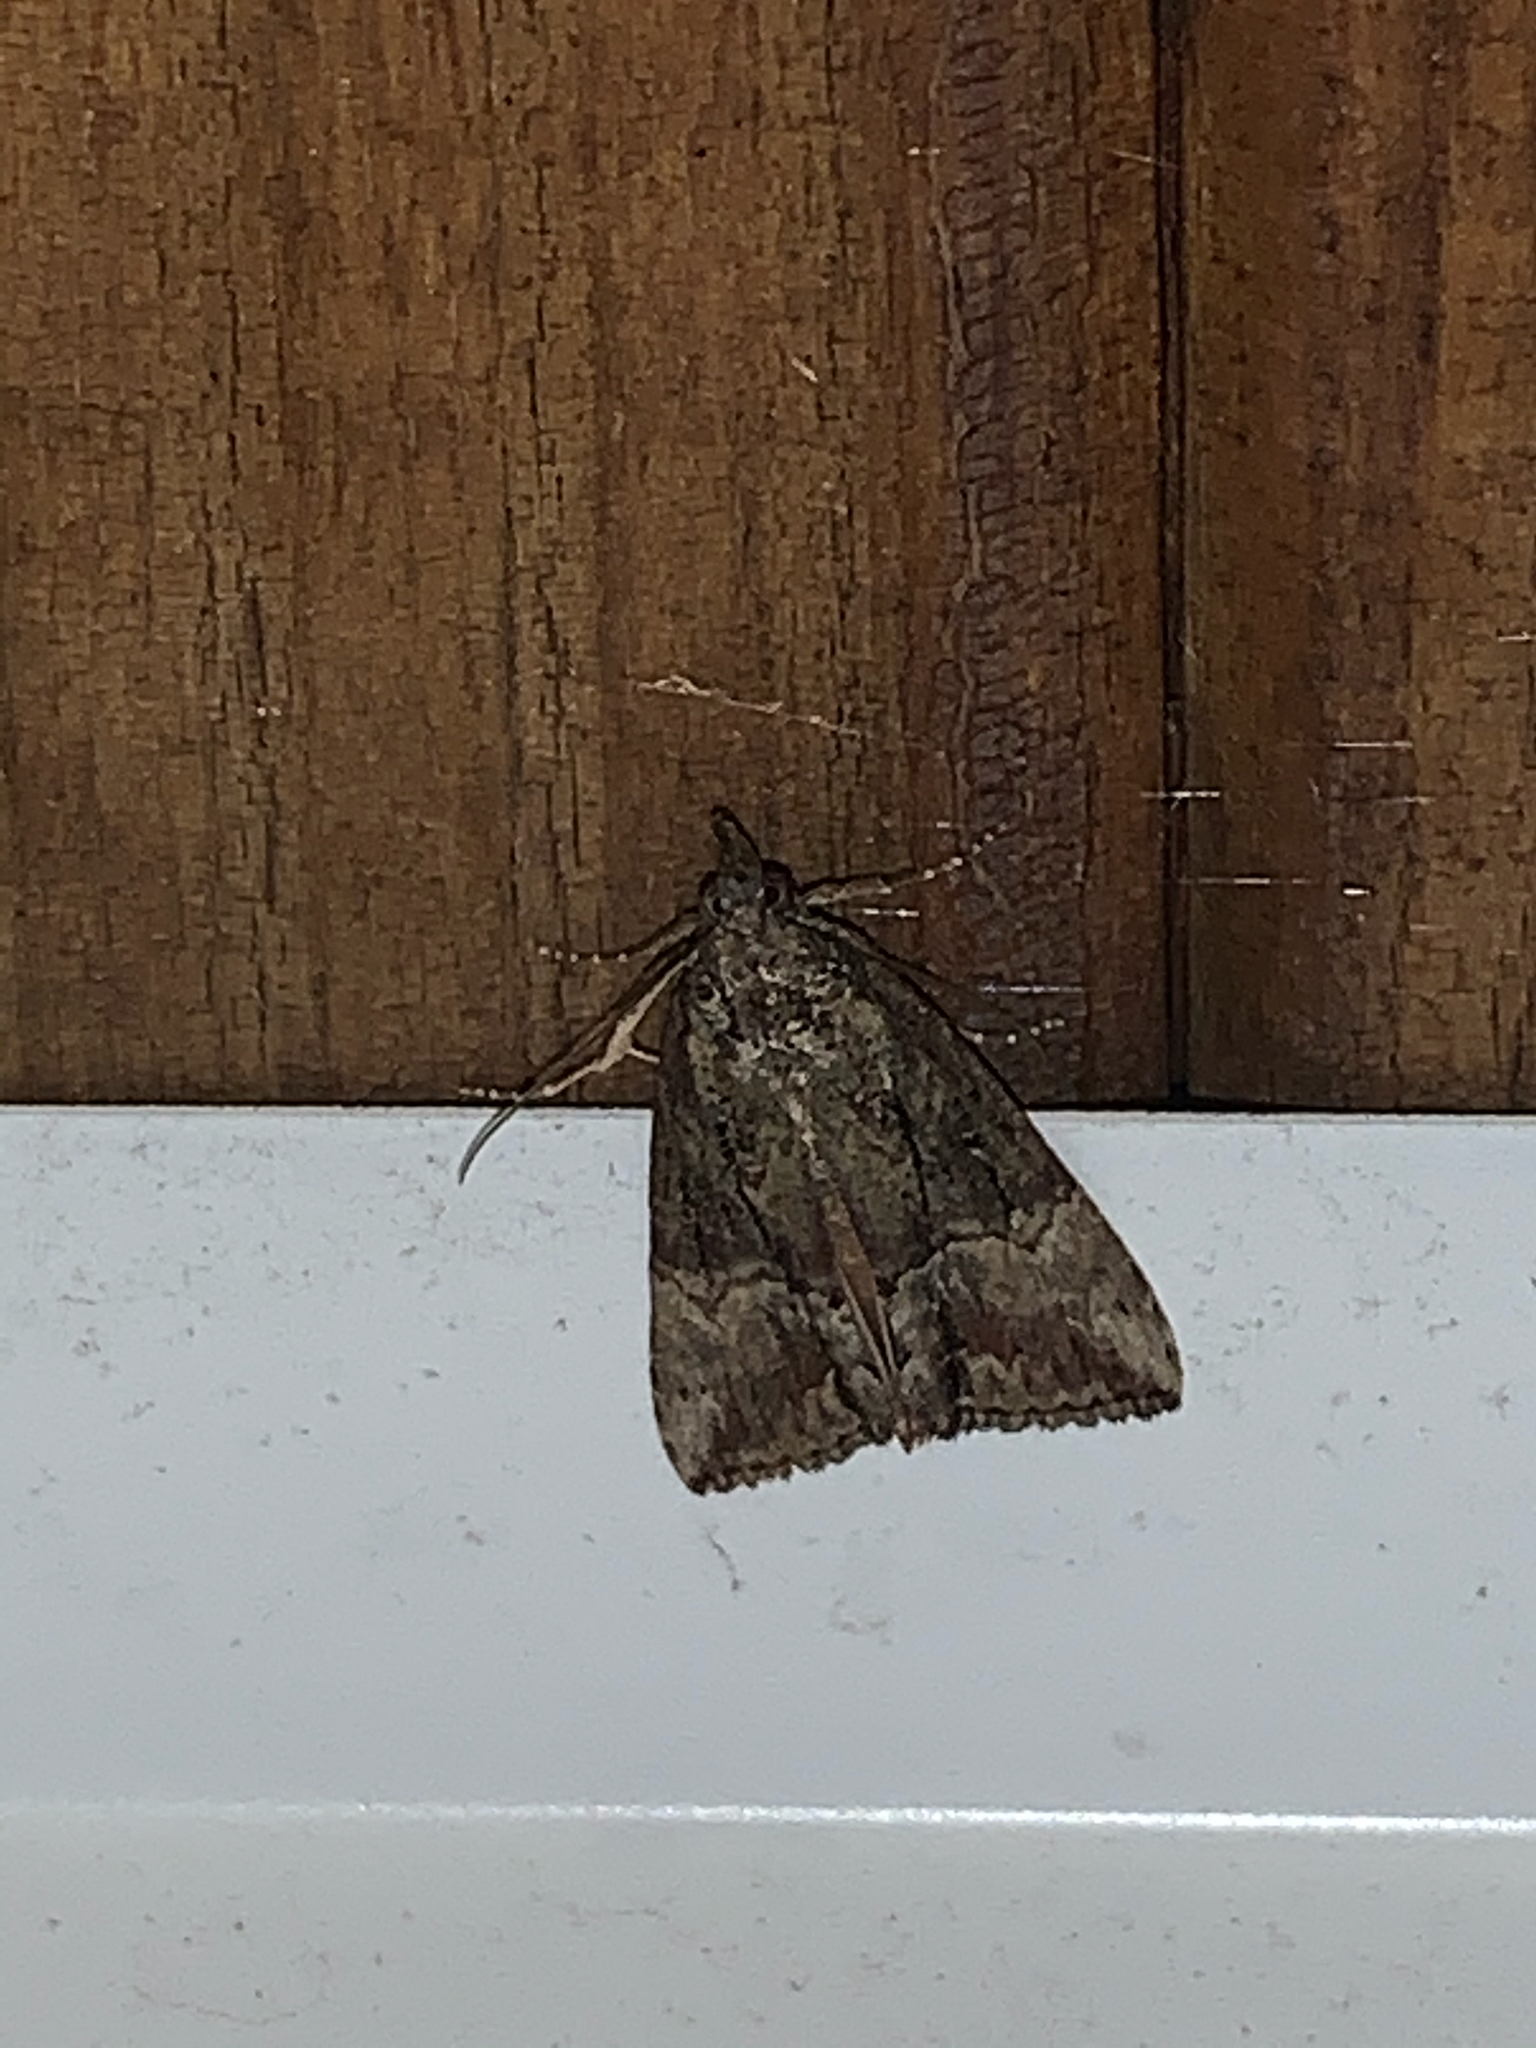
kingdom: Animalia
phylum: Arthropoda
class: Insecta
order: Lepidoptera
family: Erebidae
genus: Hypena
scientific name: Hypena scabra
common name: Green cloverworm
